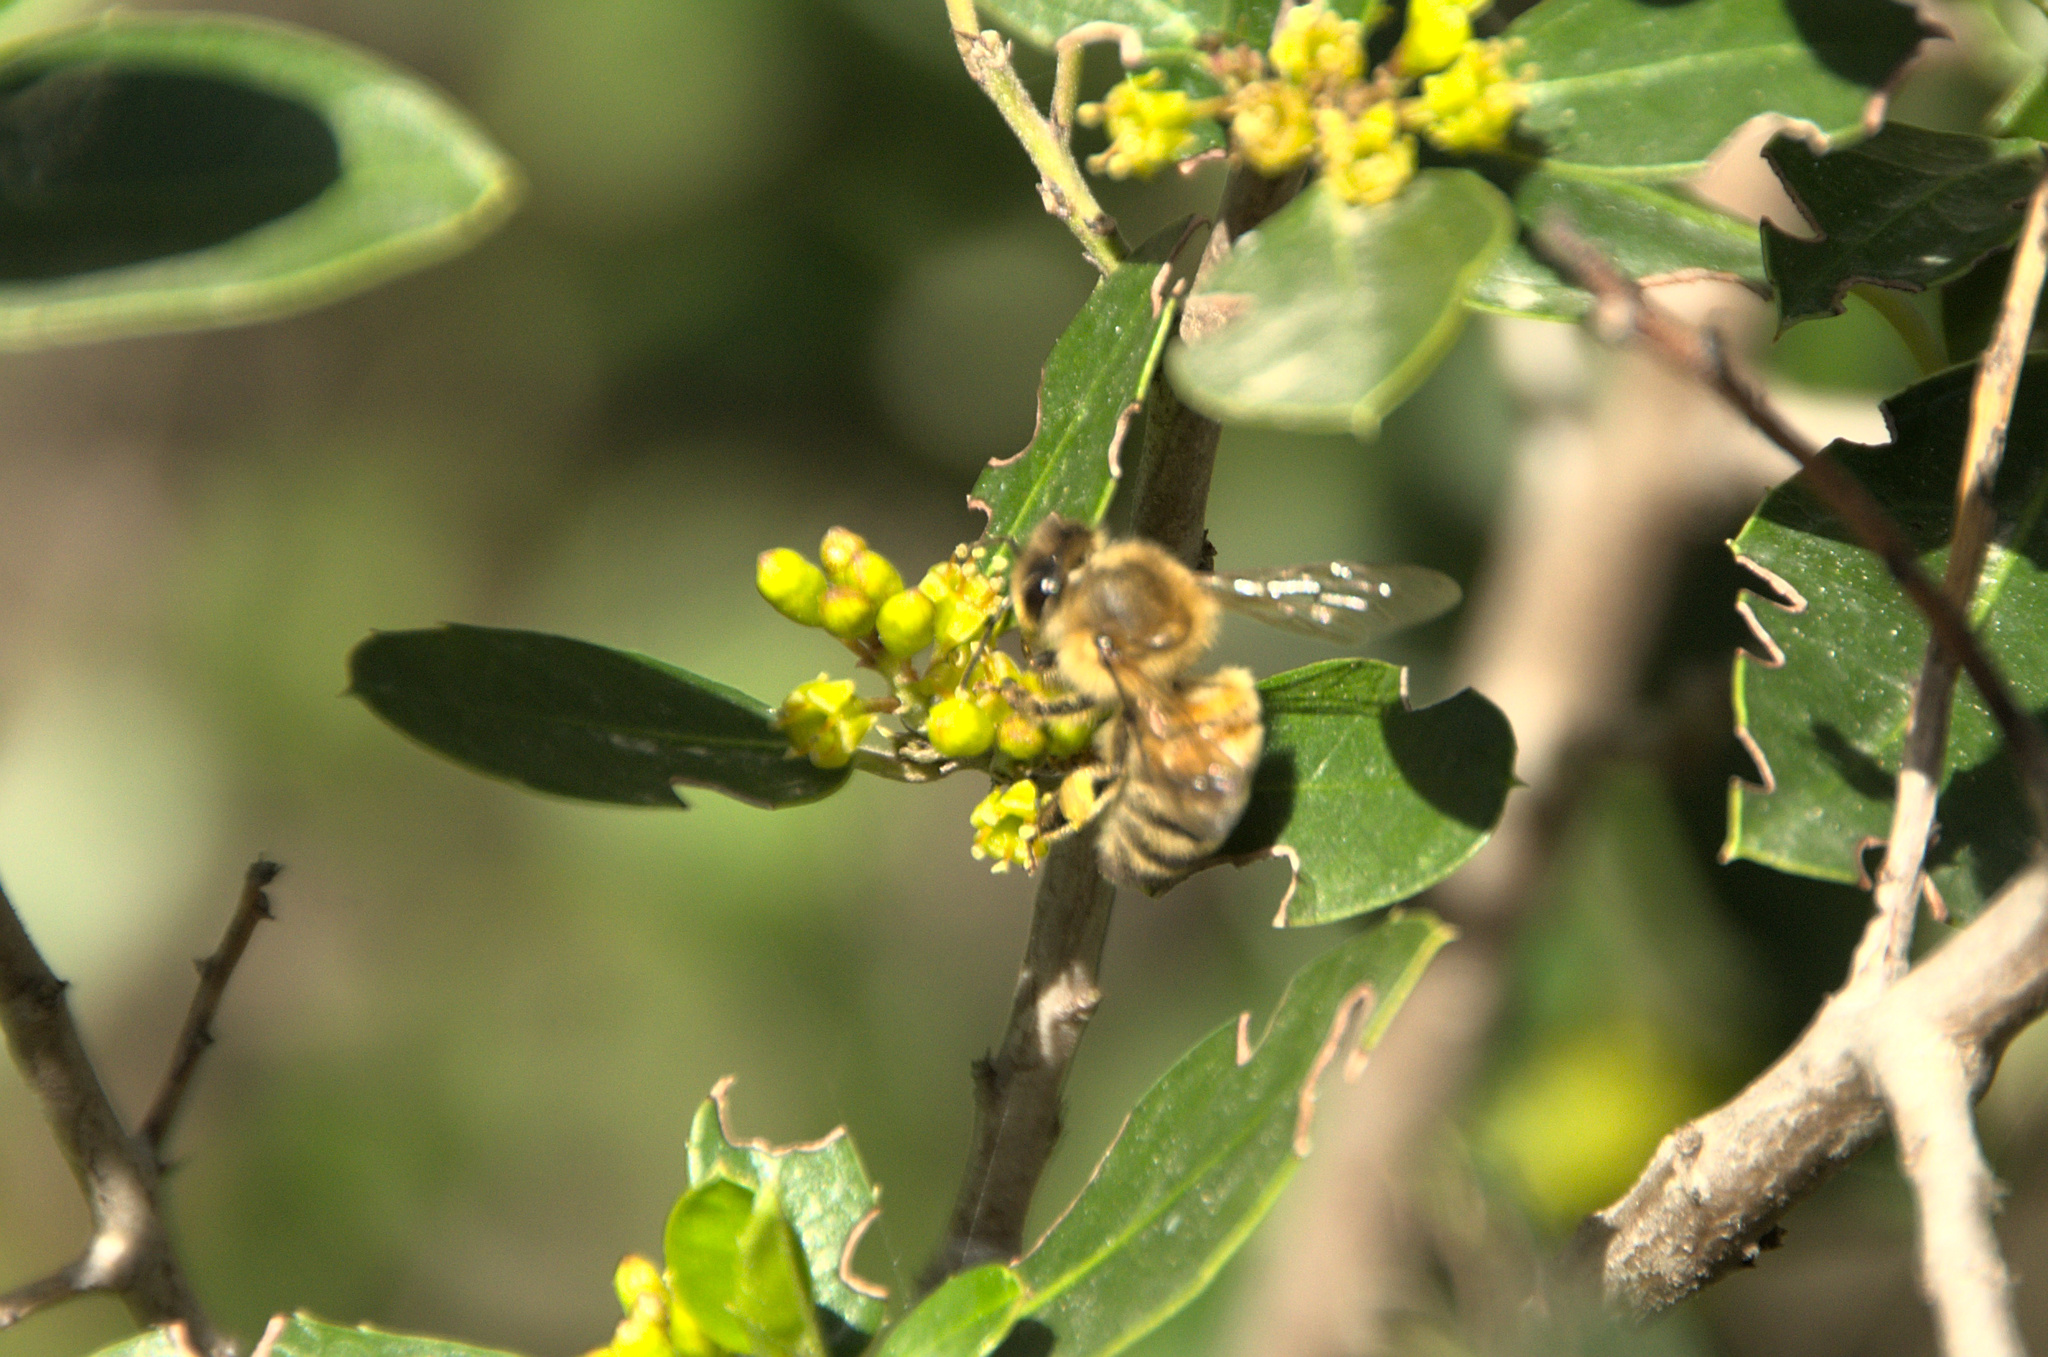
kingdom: Animalia
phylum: Arthropoda
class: Insecta
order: Hymenoptera
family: Apidae
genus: Apis
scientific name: Apis mellifera
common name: Honey bee
